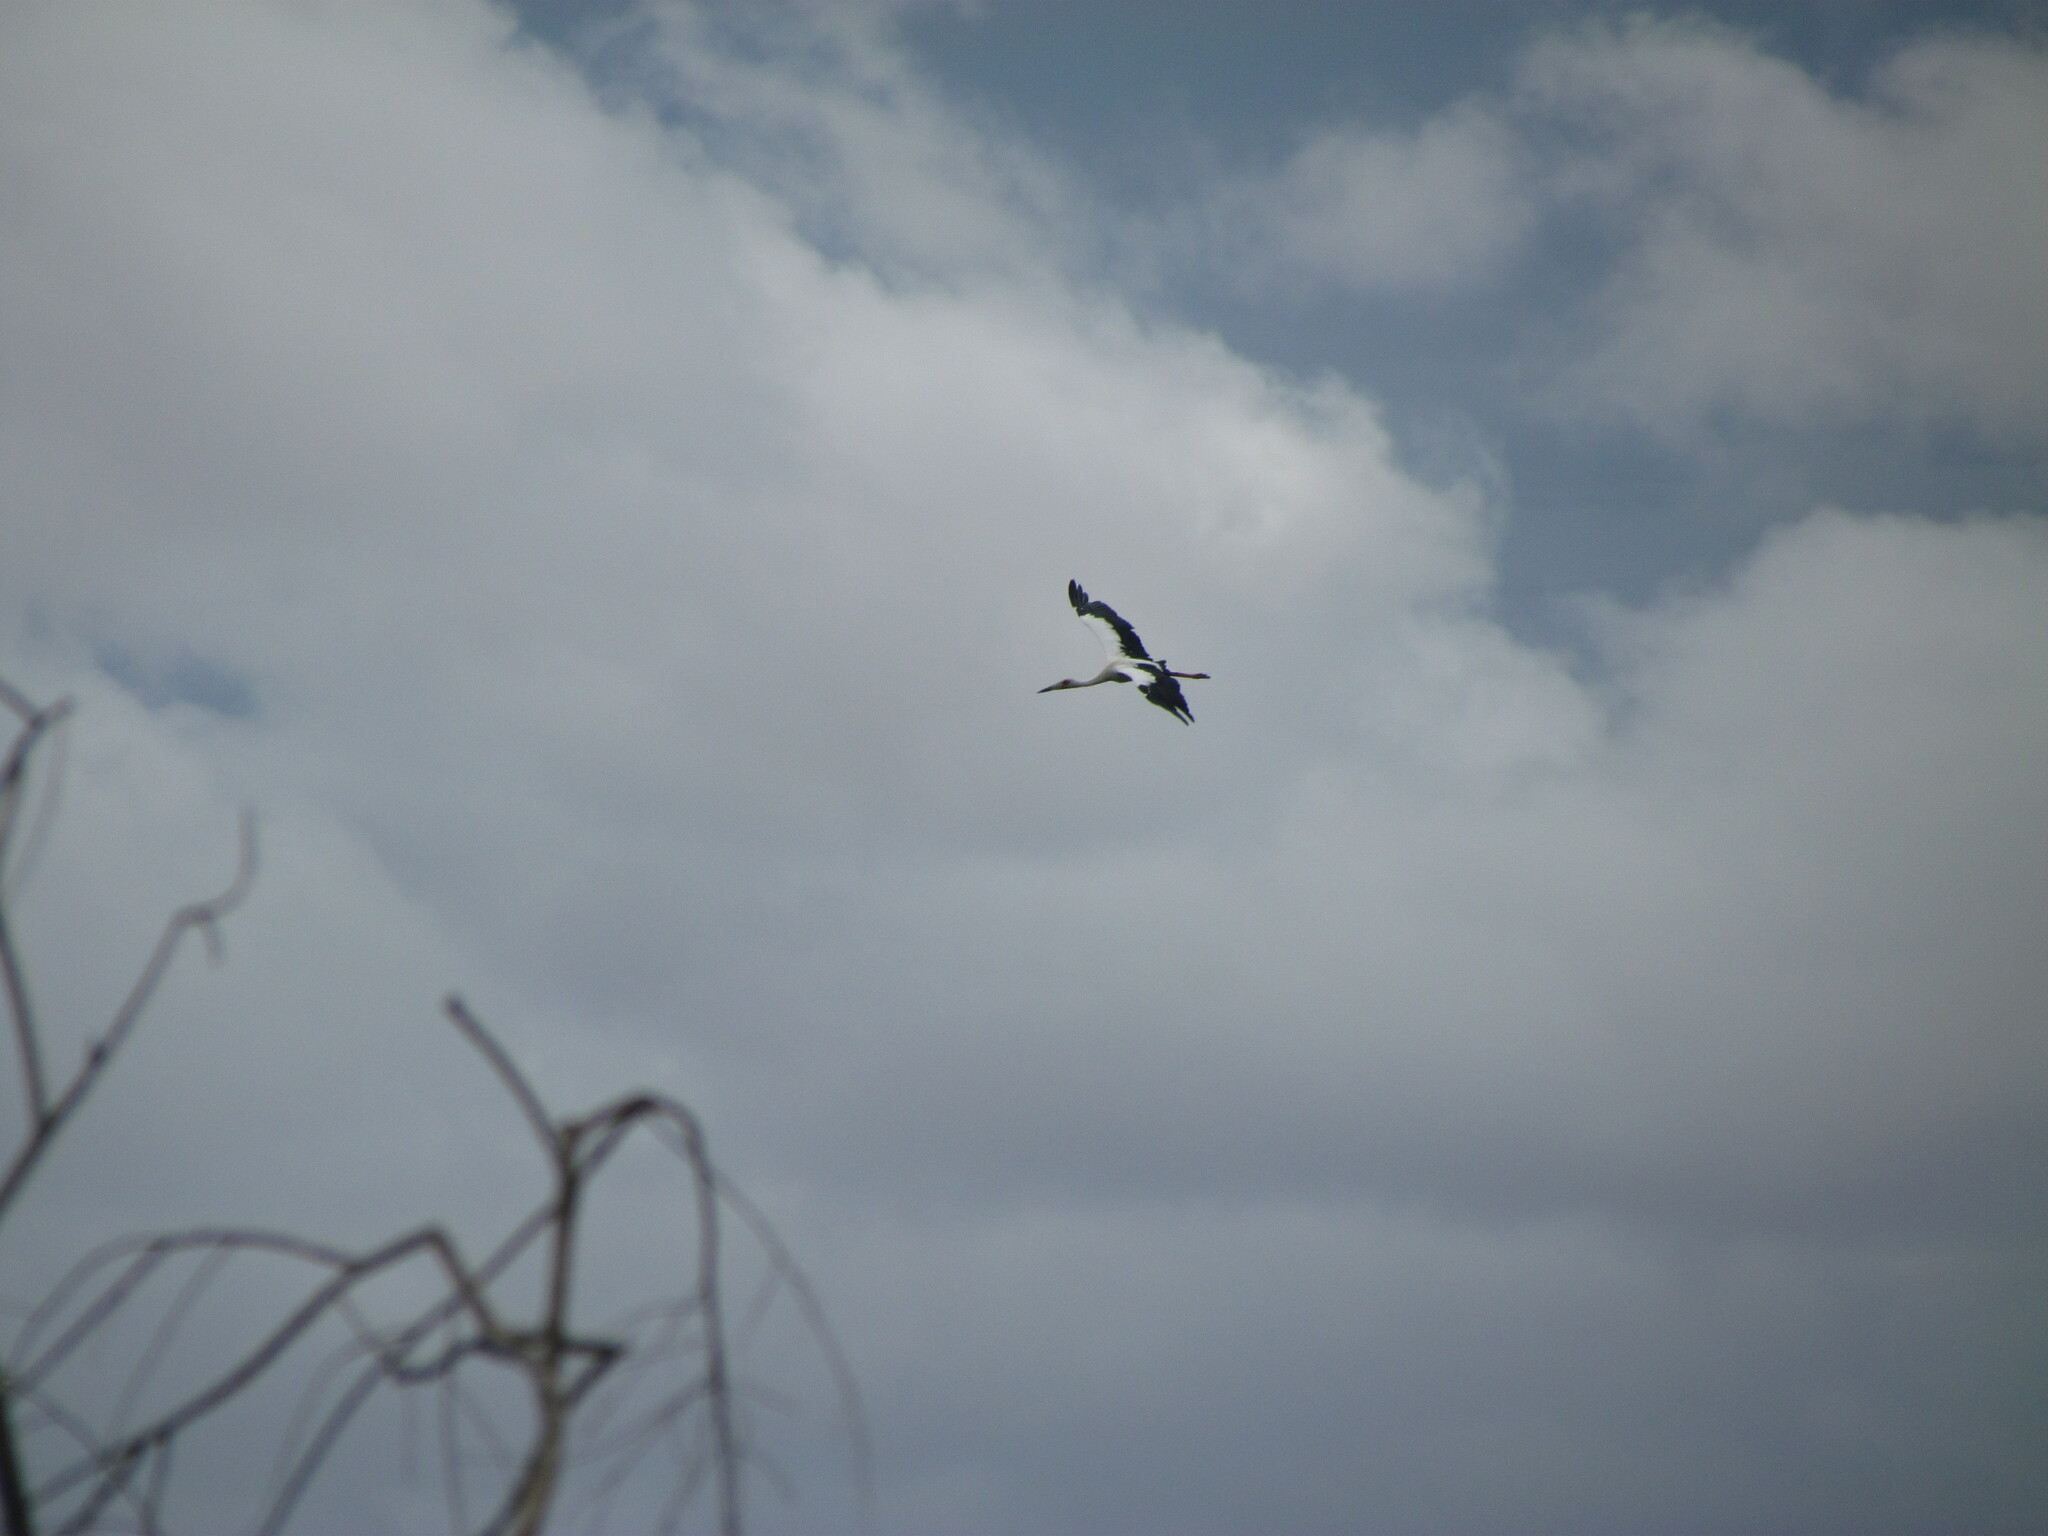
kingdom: Animalia
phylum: Chordata
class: Aves
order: Ciconiiformes
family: Ciconiidae
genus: Ciconia
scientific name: Ciconia maguari
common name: Maguari stork
